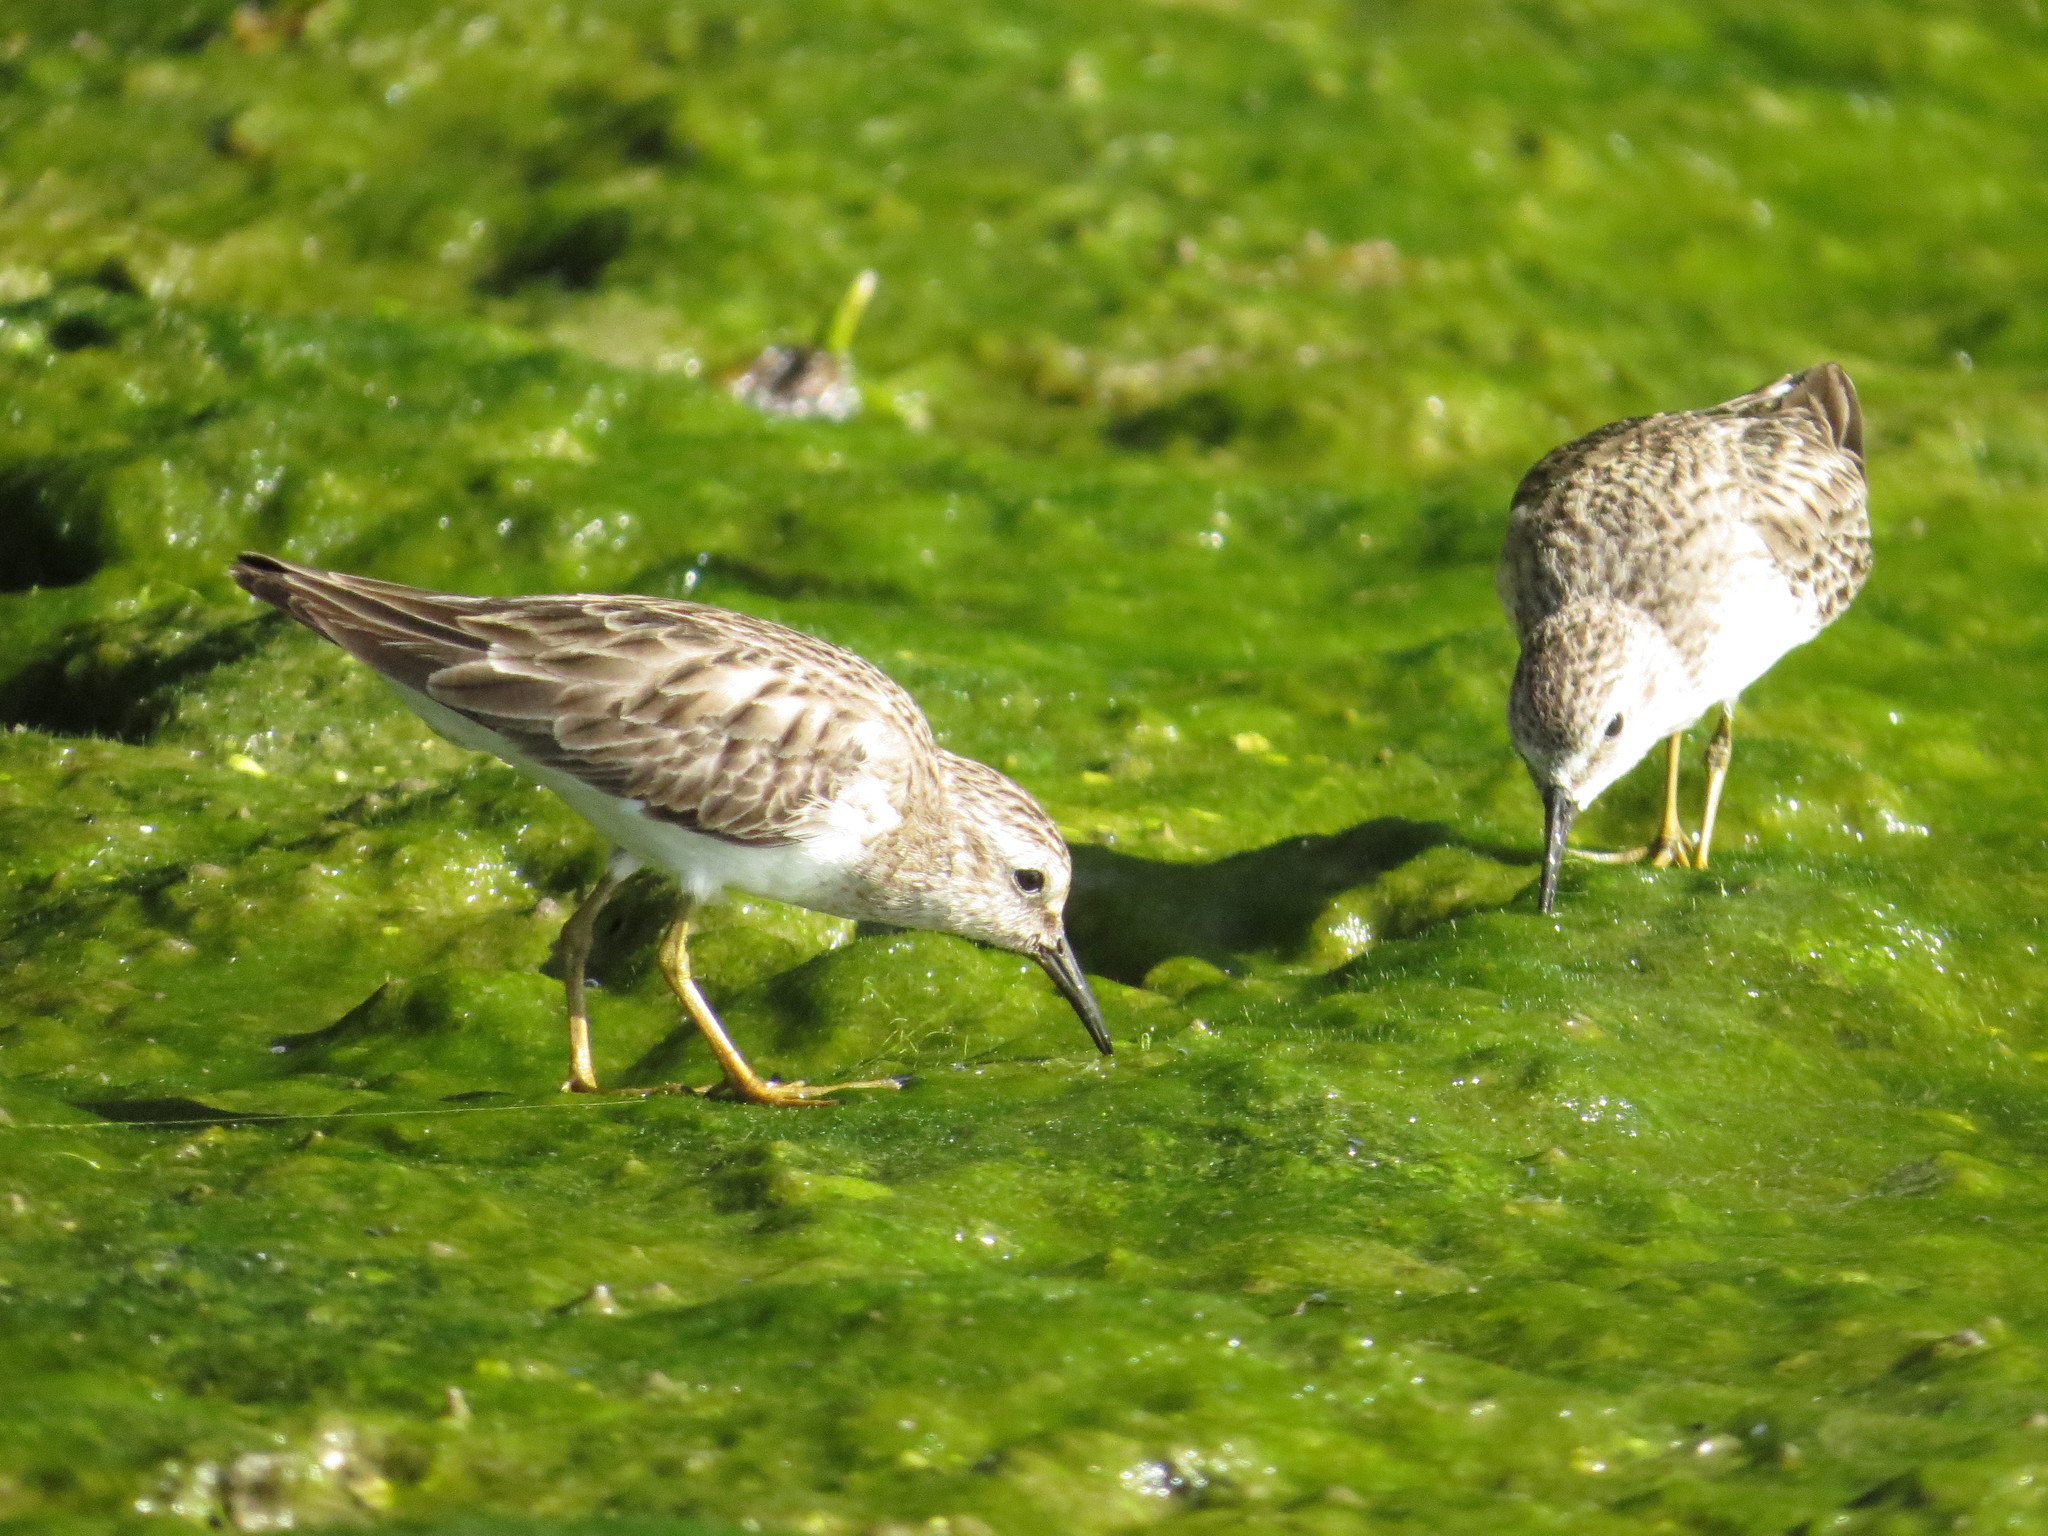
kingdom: Animalia
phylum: Chordata
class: Aves
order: Charadriiformes
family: Scolopacidae
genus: Calidris
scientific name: Calidris minutilla
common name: Least sandpiper
